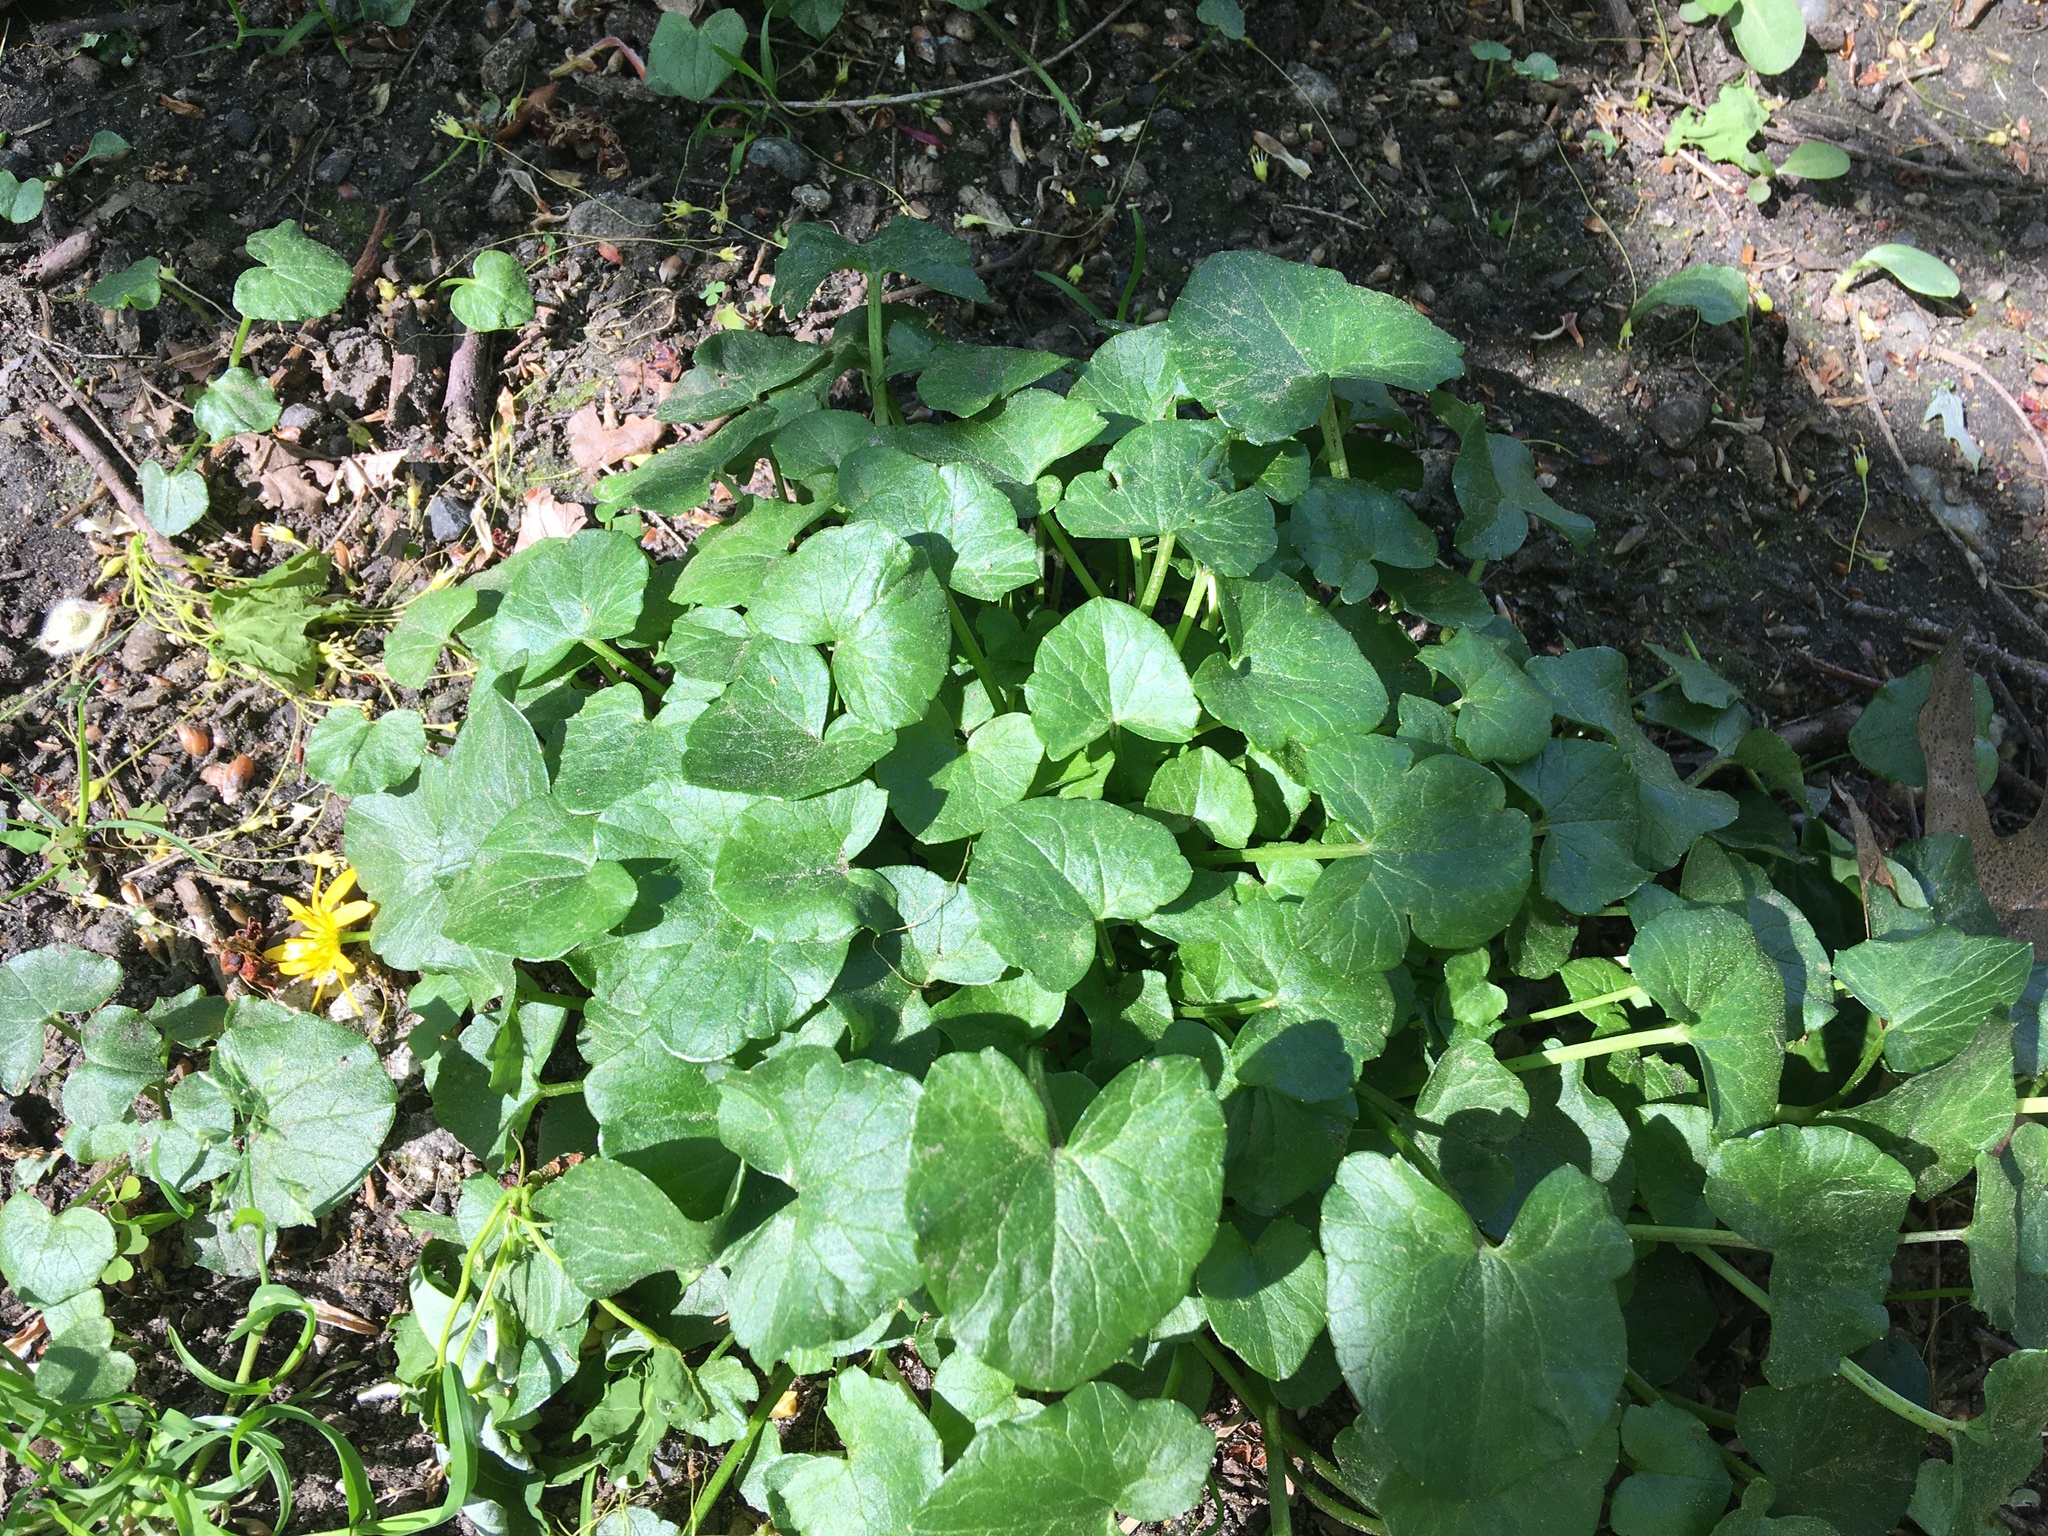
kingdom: Plantae
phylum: Tracheophyta
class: Magnoliopsida
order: Ranunculales
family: Ranunculaceae
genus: Ficaria
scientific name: Ficaria verna
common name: Lesser celandine
